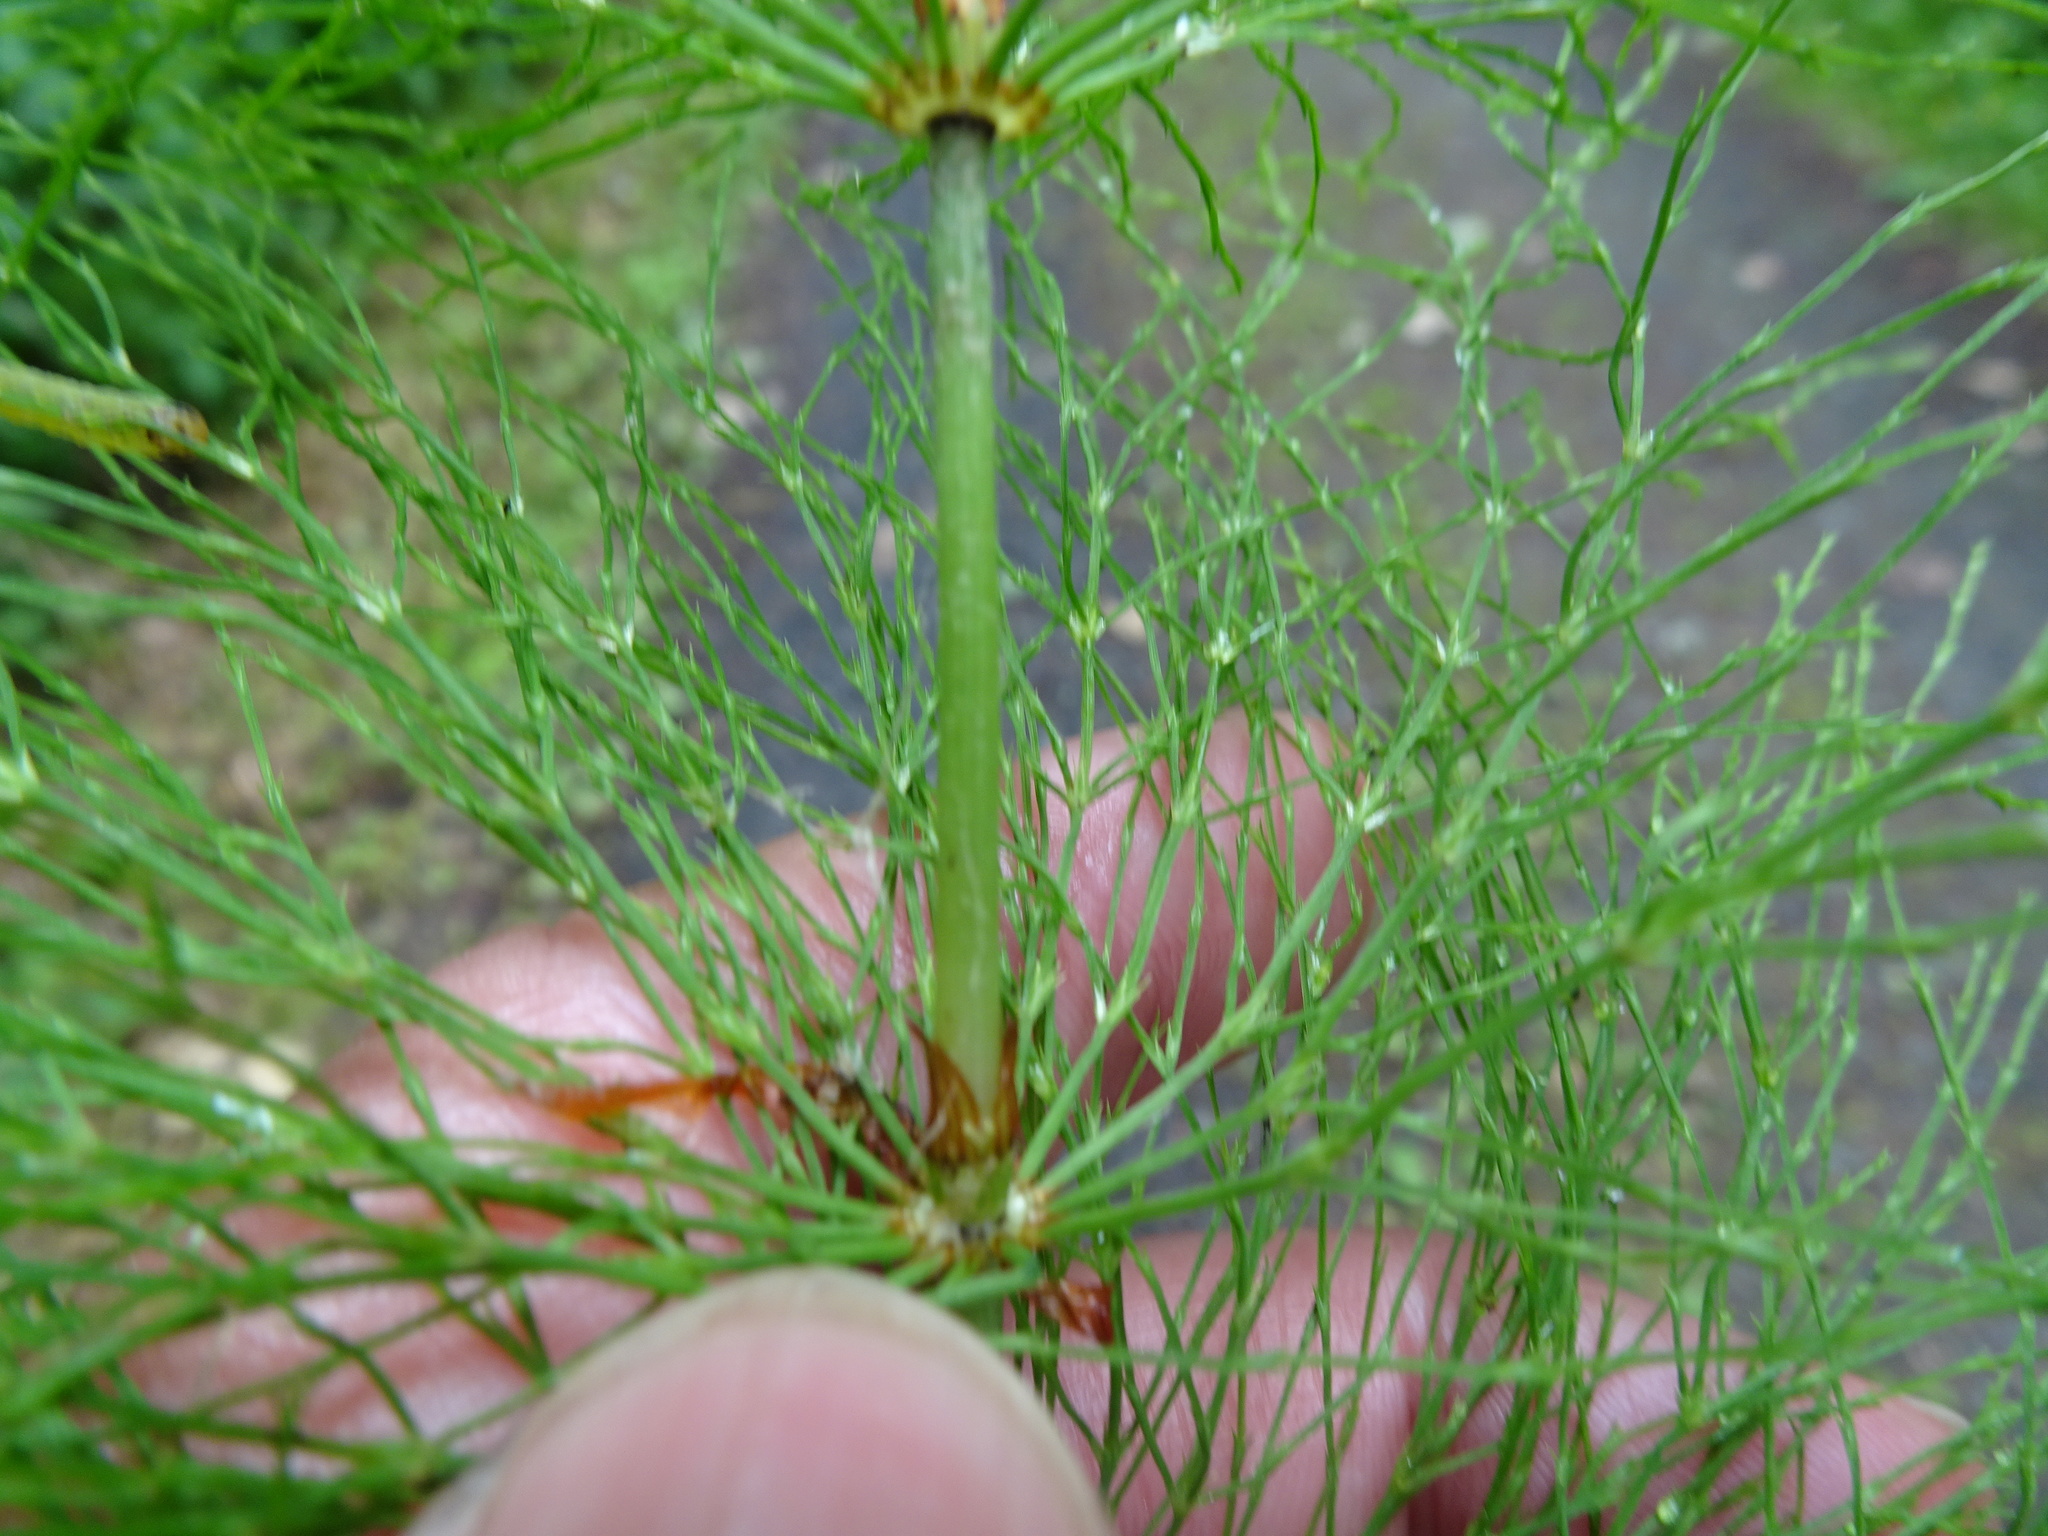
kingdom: Plantae
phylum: Tracheophyta
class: Polypodiopsida
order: Equisetales
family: Equisetaceae
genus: Equisetum
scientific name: Equisetum sylvaticum
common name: Wood horsetail
